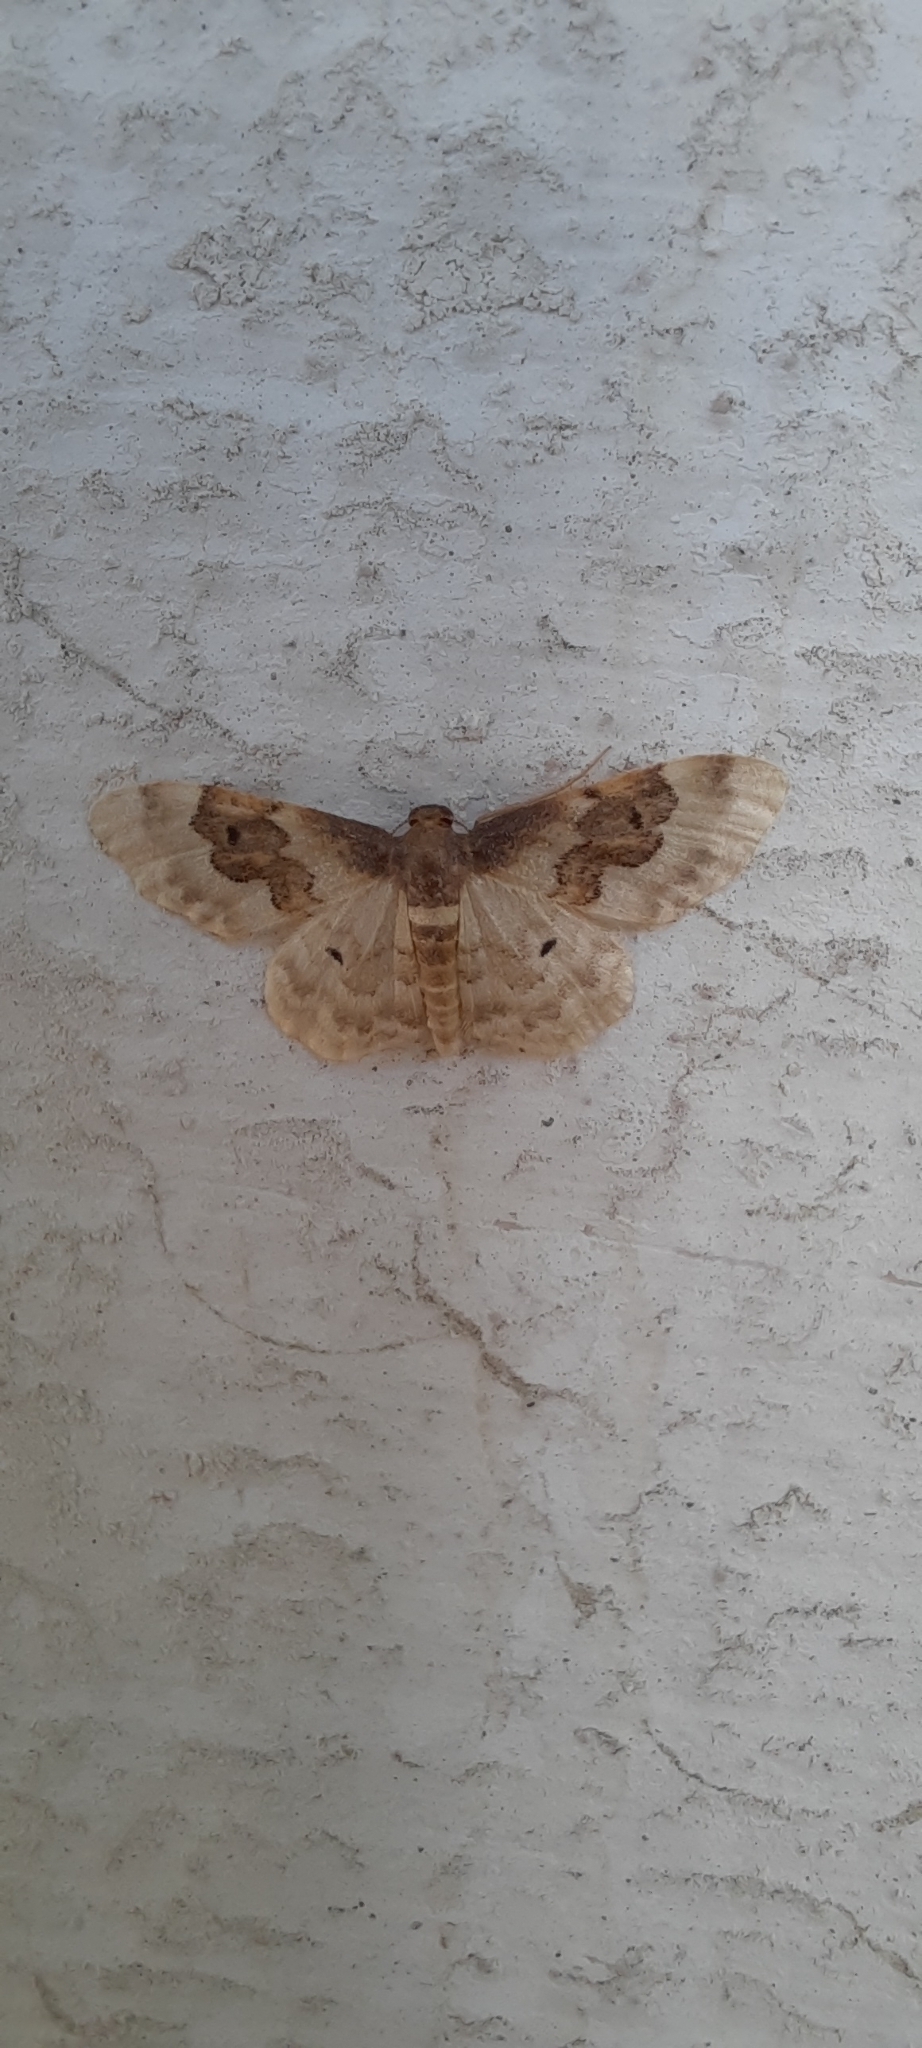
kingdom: Animalia
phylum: Arthropoda
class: Insecta
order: Lepidoptera
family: Geometridae
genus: Idaea
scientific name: Idaea rusticata
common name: Least carpet
